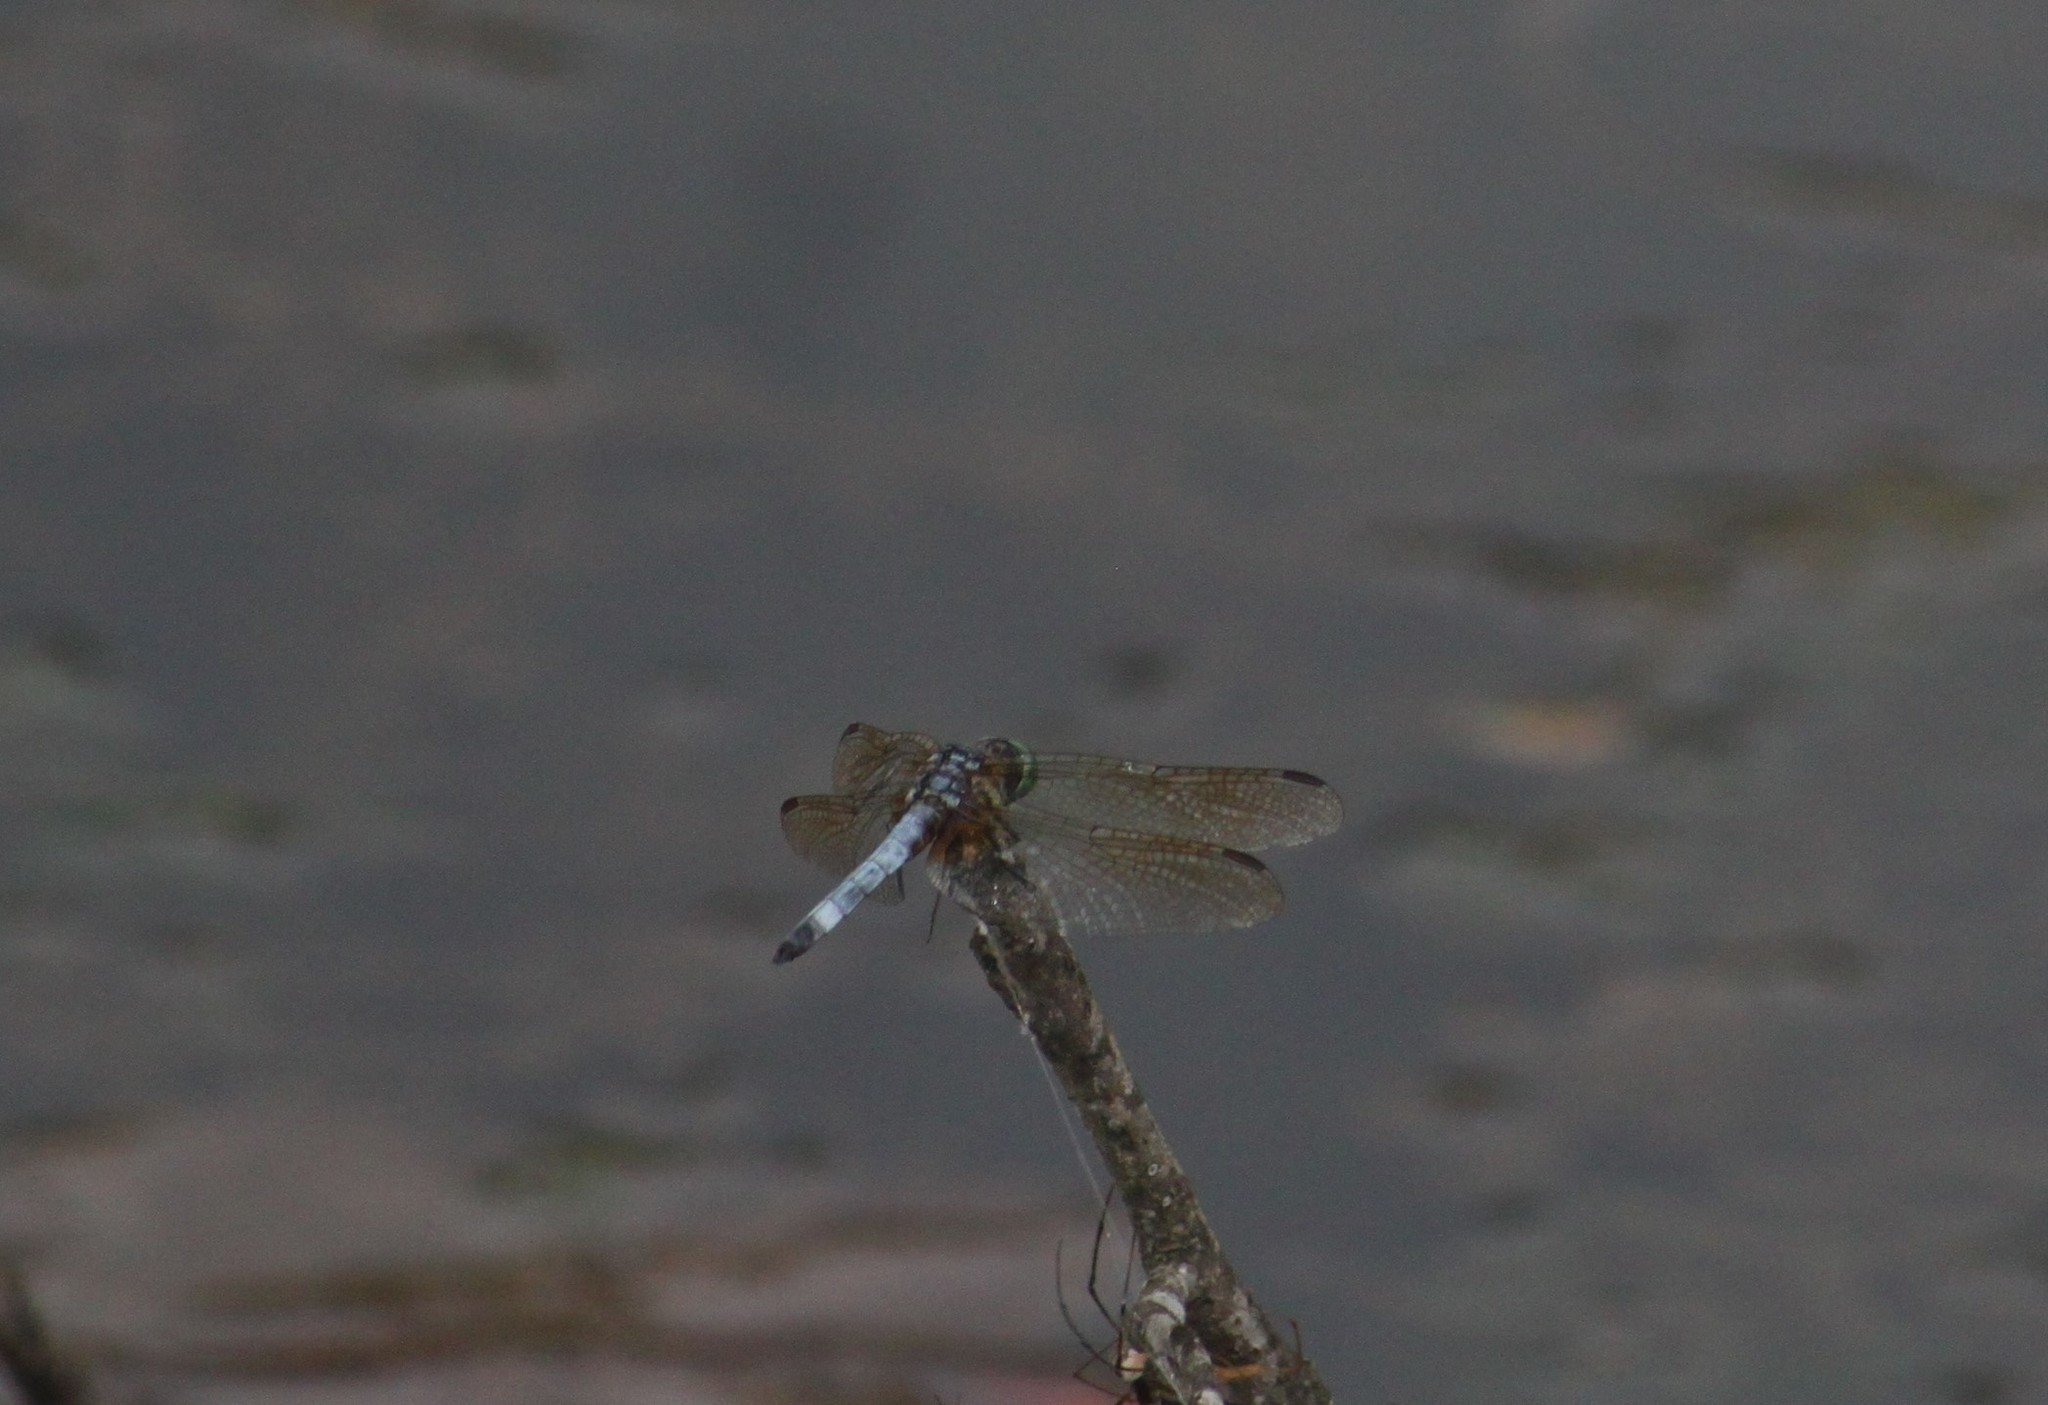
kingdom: Animalia
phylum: Arthropoda
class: Insecta
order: Odonata
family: Libellulidae
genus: Pachydiplax
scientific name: Pachydiplax longipennis
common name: Blue dasher
